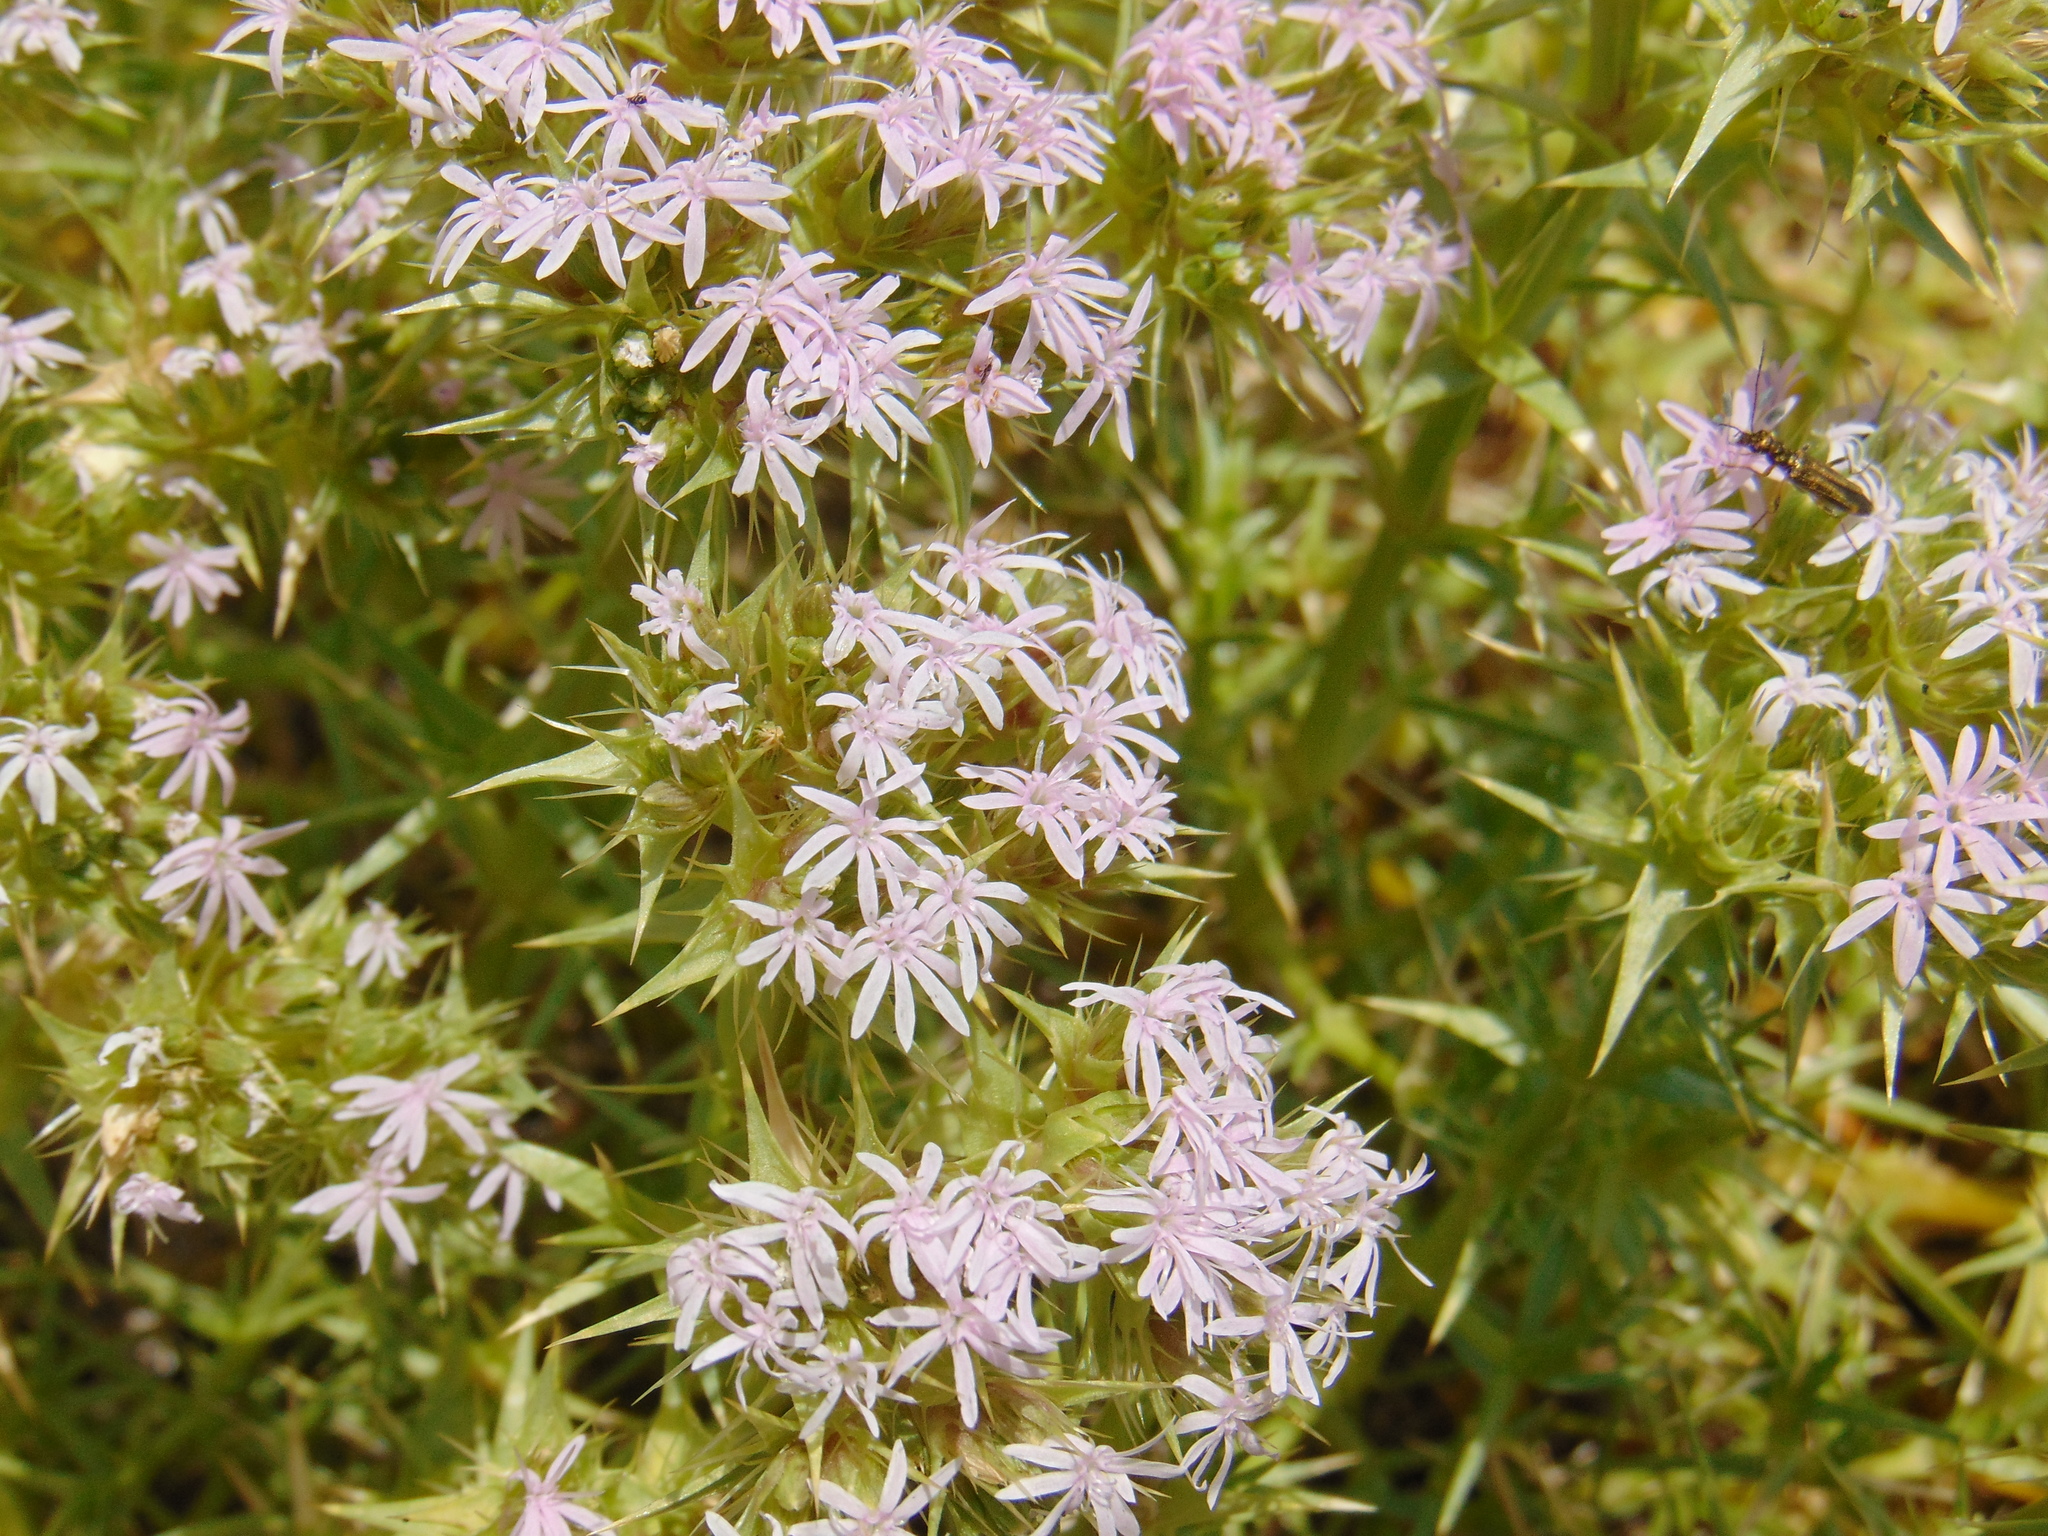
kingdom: Plantae
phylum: Tracheophyta
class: Magnoliopsida
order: Caryophyllales
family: Caryophyllaceae
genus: Drypis
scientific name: Drypis spinosa
